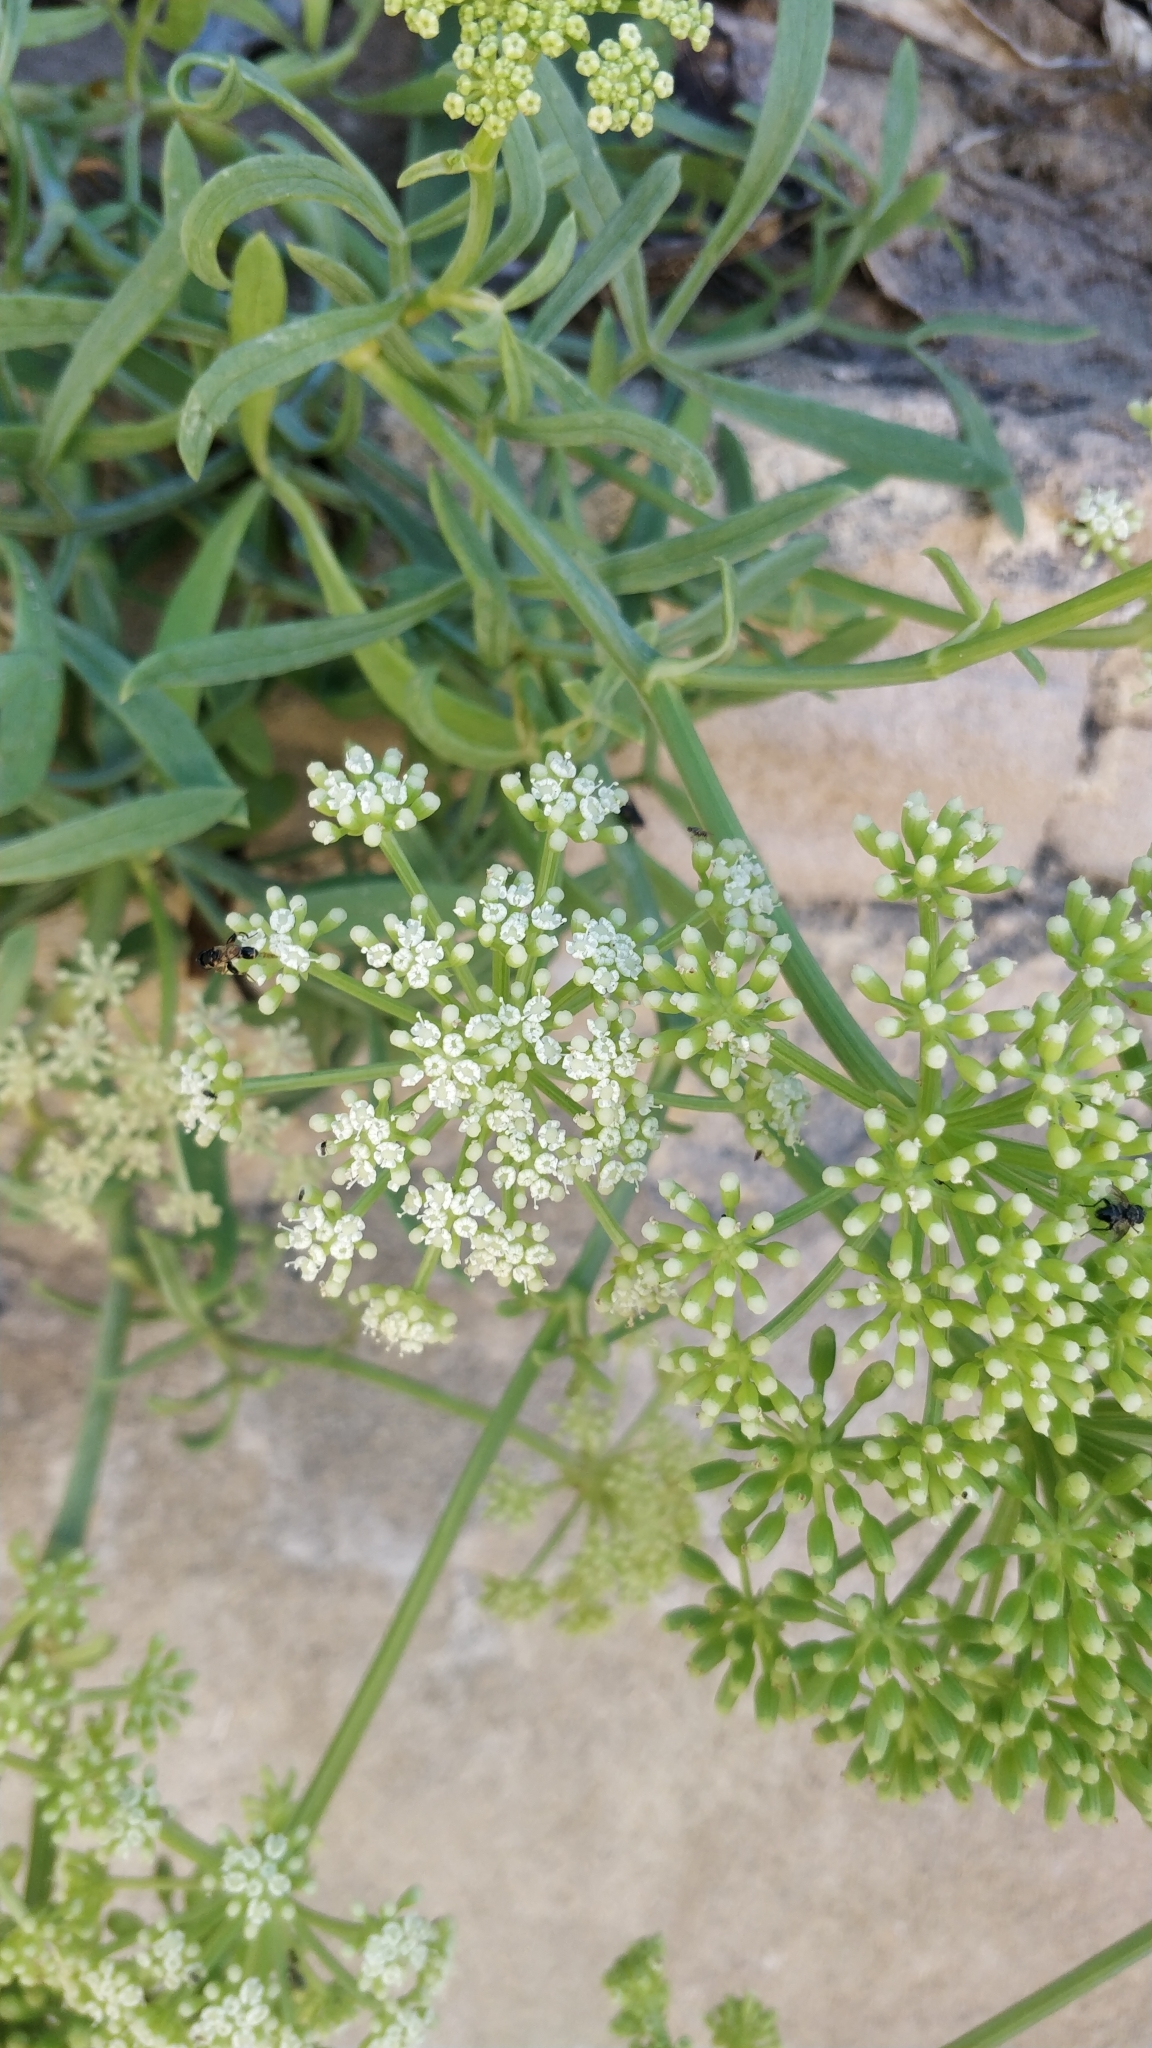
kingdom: Plantae
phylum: Tracheophyta
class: Magnoliopsida
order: Apiales
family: Apiaceae
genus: Crithmum
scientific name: Crithmum maritimum
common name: Rock samphire
